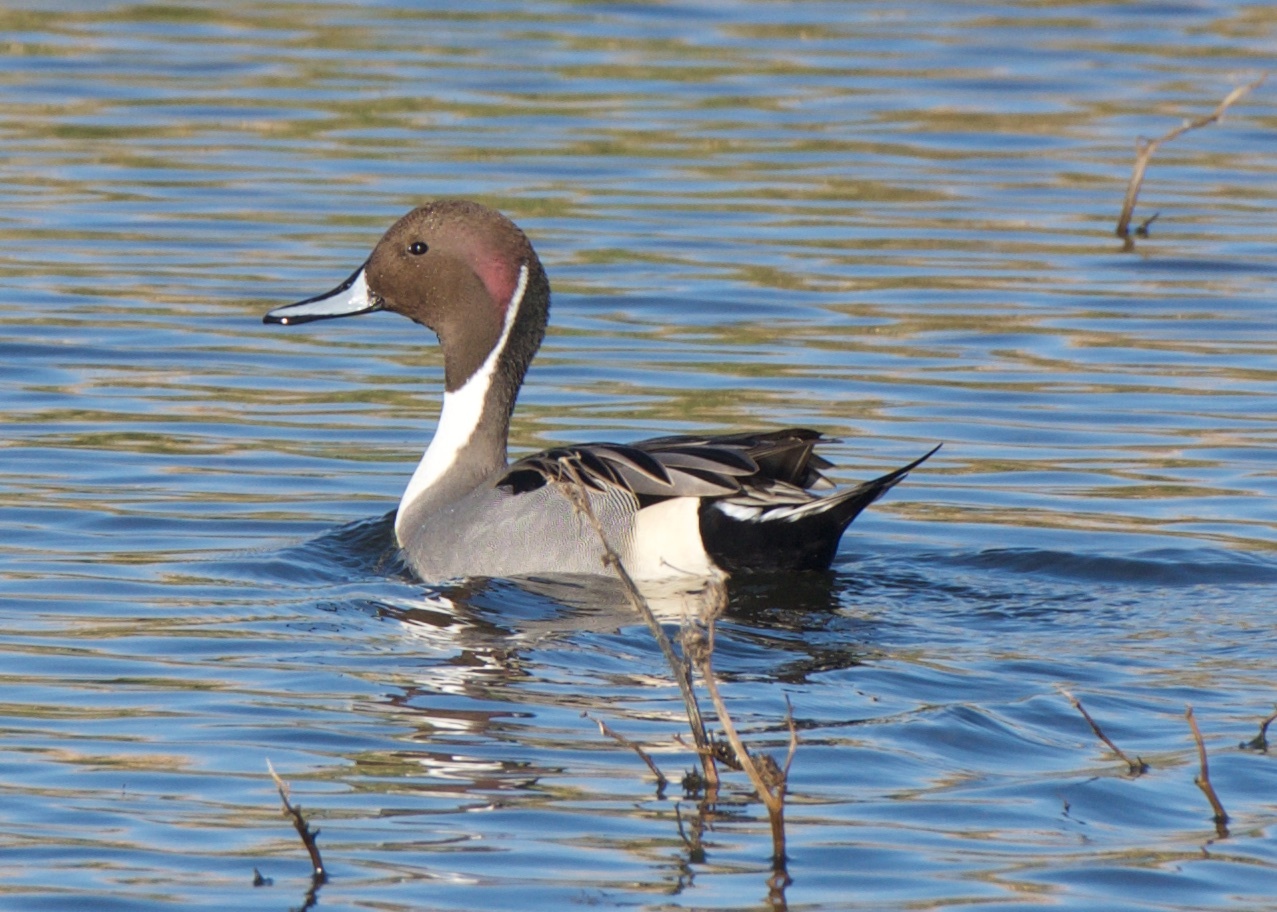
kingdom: Animalia
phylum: Chordata
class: Aves
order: Anseriformes
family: Anatidae
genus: Anas
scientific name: Anas acuta
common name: Northern pintail
